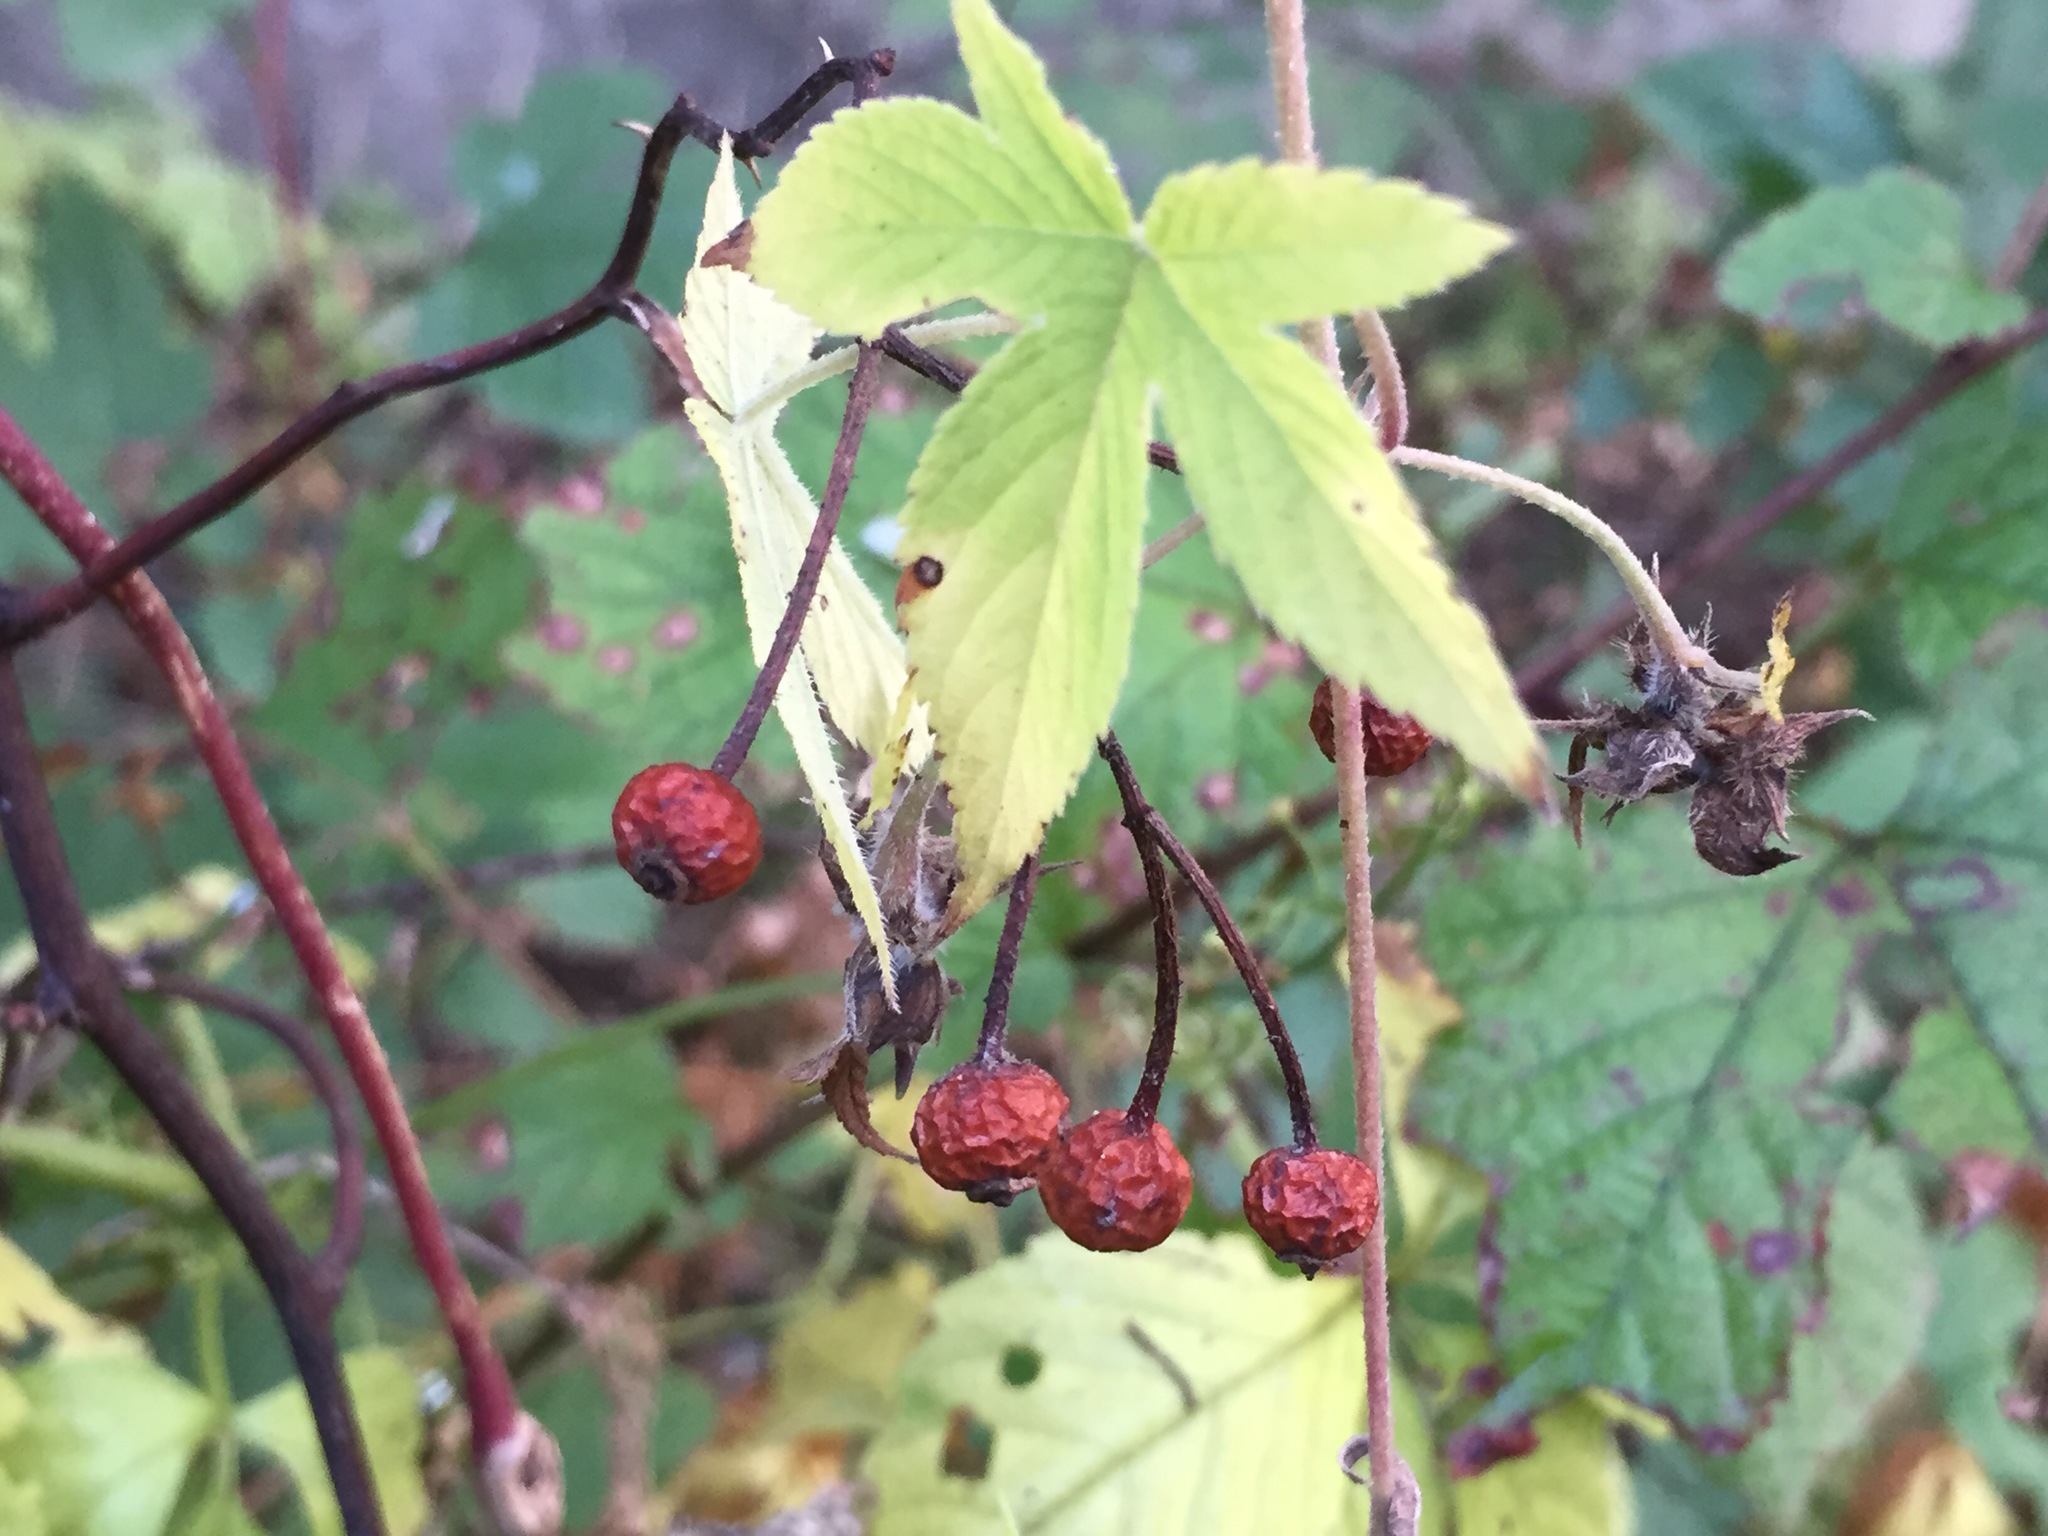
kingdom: Plantae
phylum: Tracheophyta
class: Magnoliopsida
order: Rosales
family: Rosaceae
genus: Rosa
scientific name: Rosa multiflora
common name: Multiflora rose
